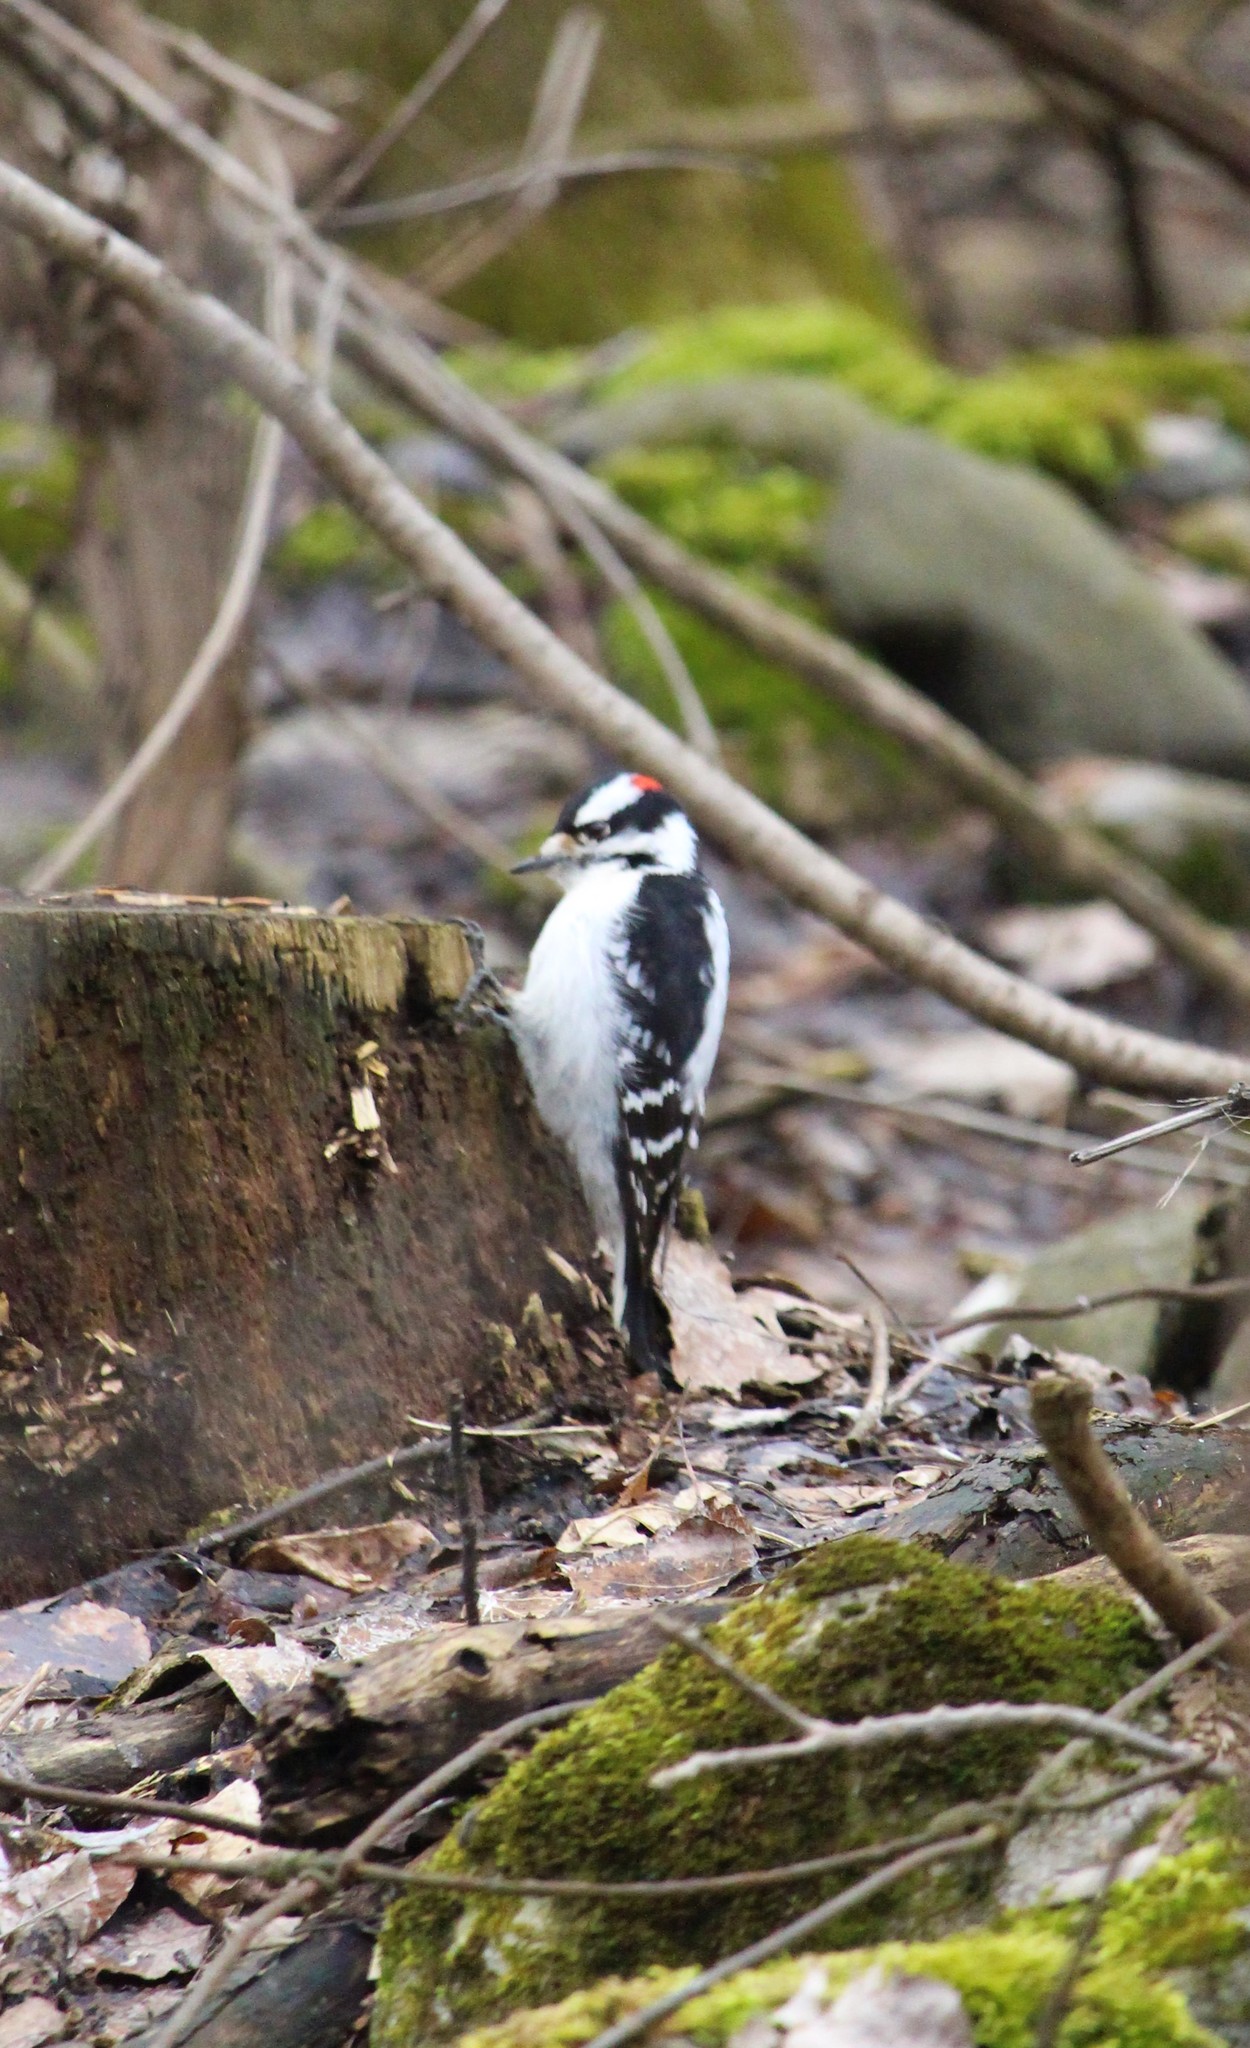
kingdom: Animalia
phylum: Chordata
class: Aves
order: Piciformes
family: Picidae
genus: Dryobates
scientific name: Dryobates pubescens
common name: Downy woodpecker
